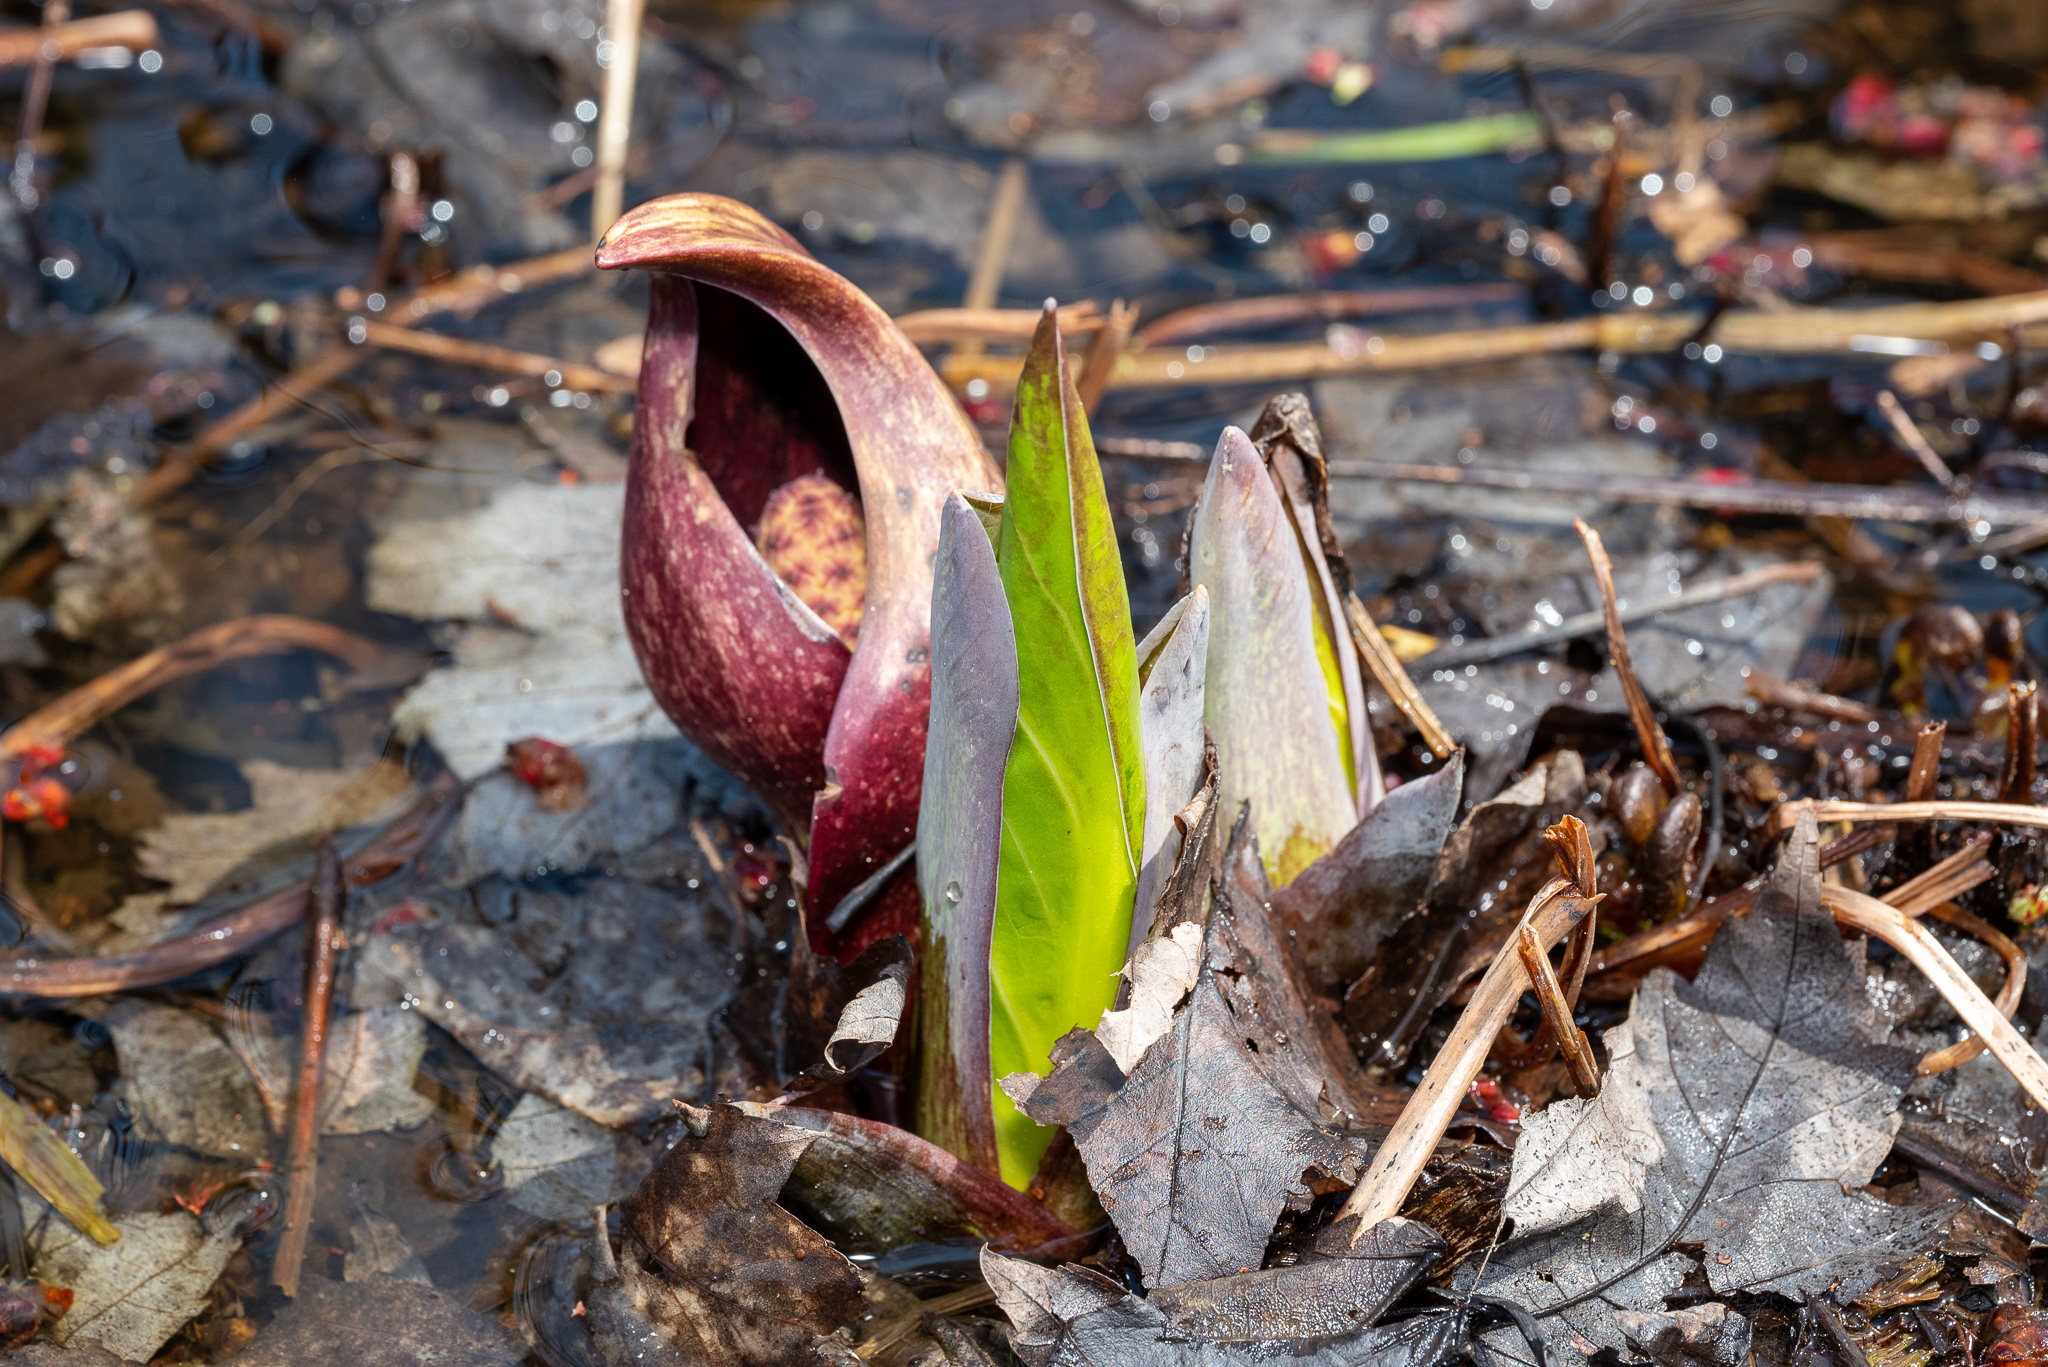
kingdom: Plantae
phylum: Tracheophyta
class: Liliopsida
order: Alismatales
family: Araceae
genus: Symplocarpus
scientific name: Symplocarpus foetidus
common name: Eastern skunk cabbage
